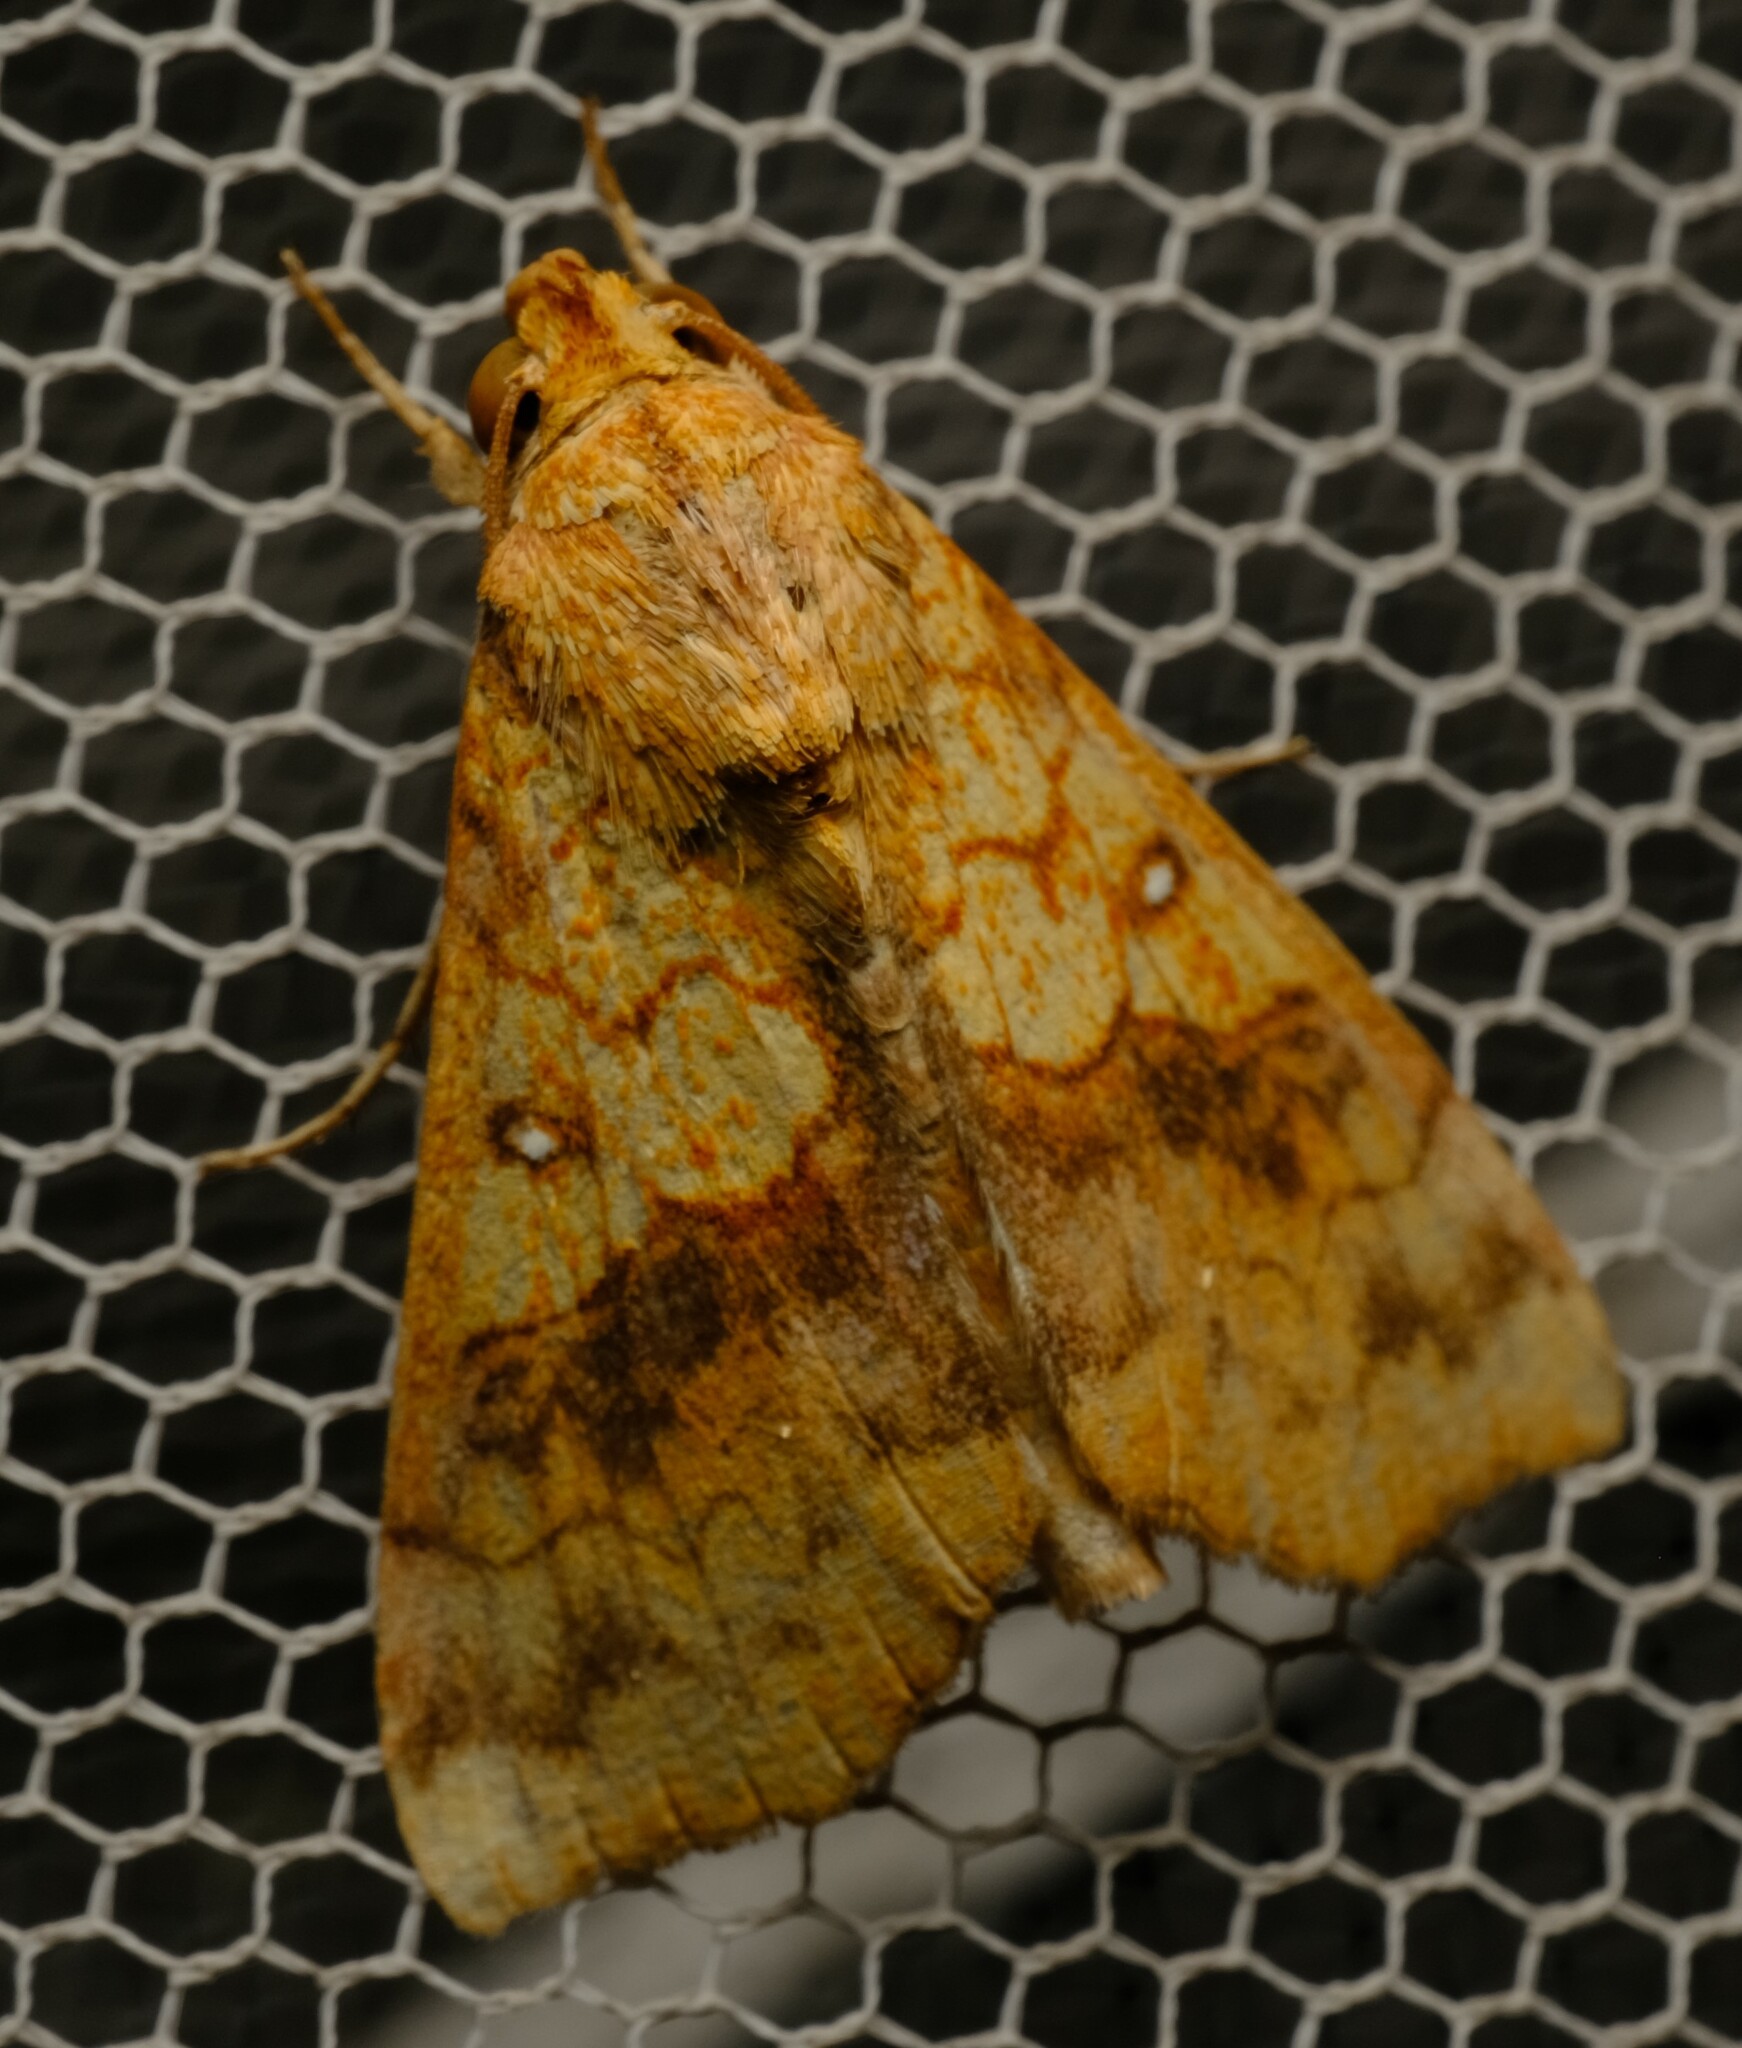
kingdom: Animalia
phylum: Arthropoda
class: Insecta
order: Lepidoptera
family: Erebidae
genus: Anomis
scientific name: Anomis flava
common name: Moth
